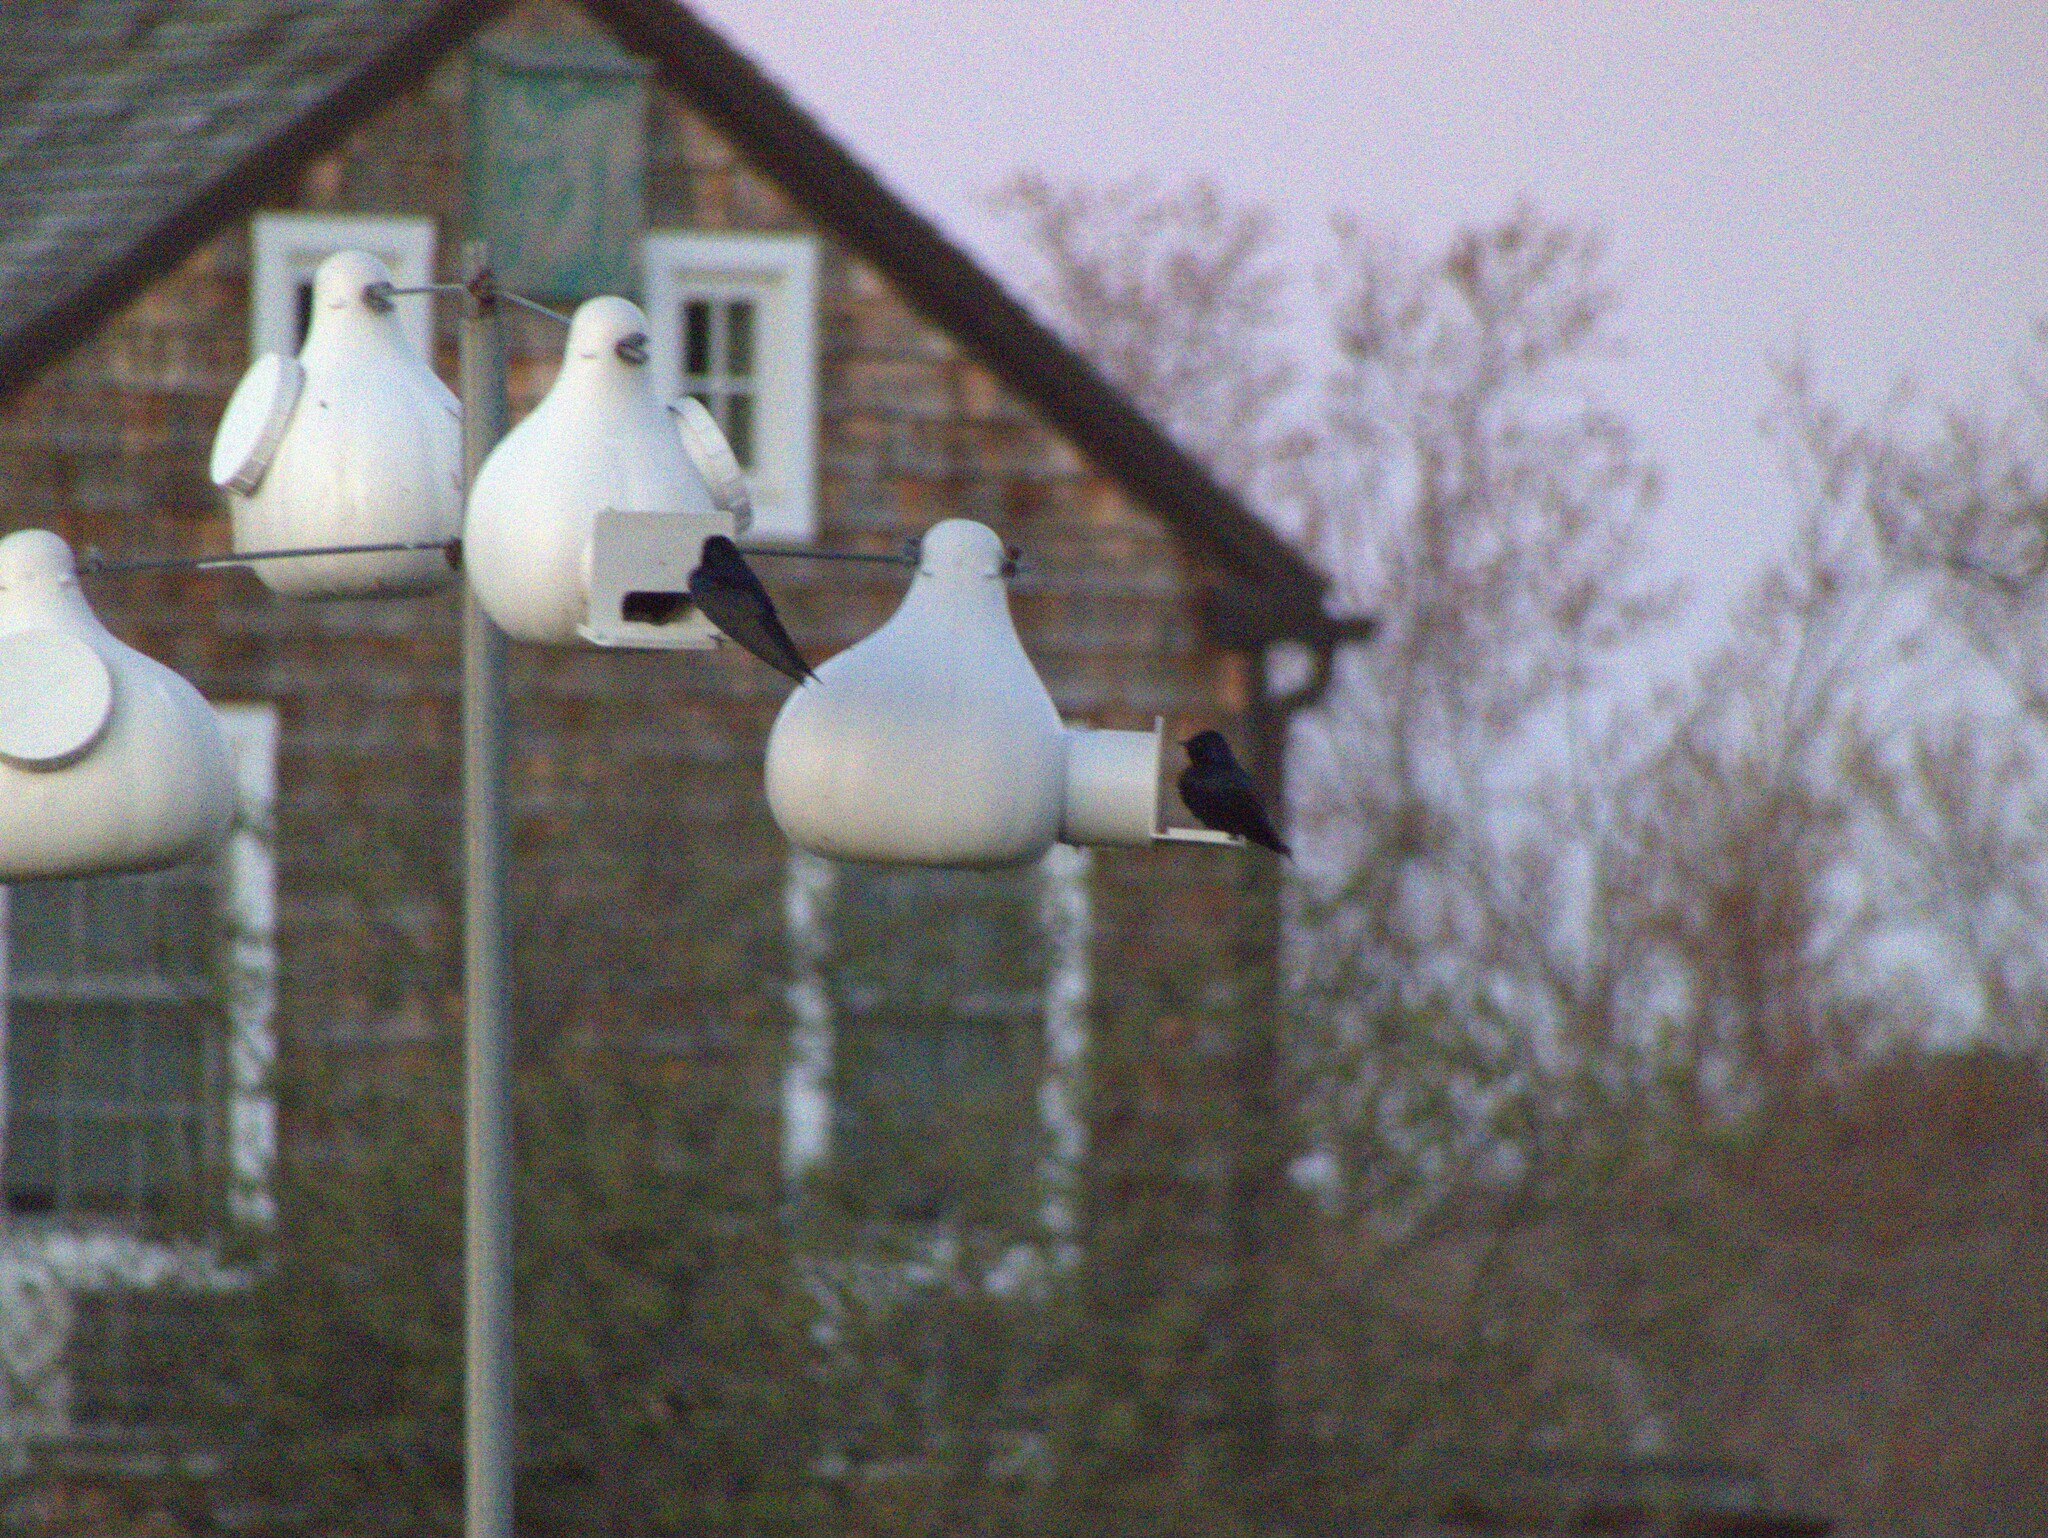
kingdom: Animalia
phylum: Chordata
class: Aves
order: Passeriformes
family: Hirundinidae
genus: Progne
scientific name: Progne subis
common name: Purple martin
